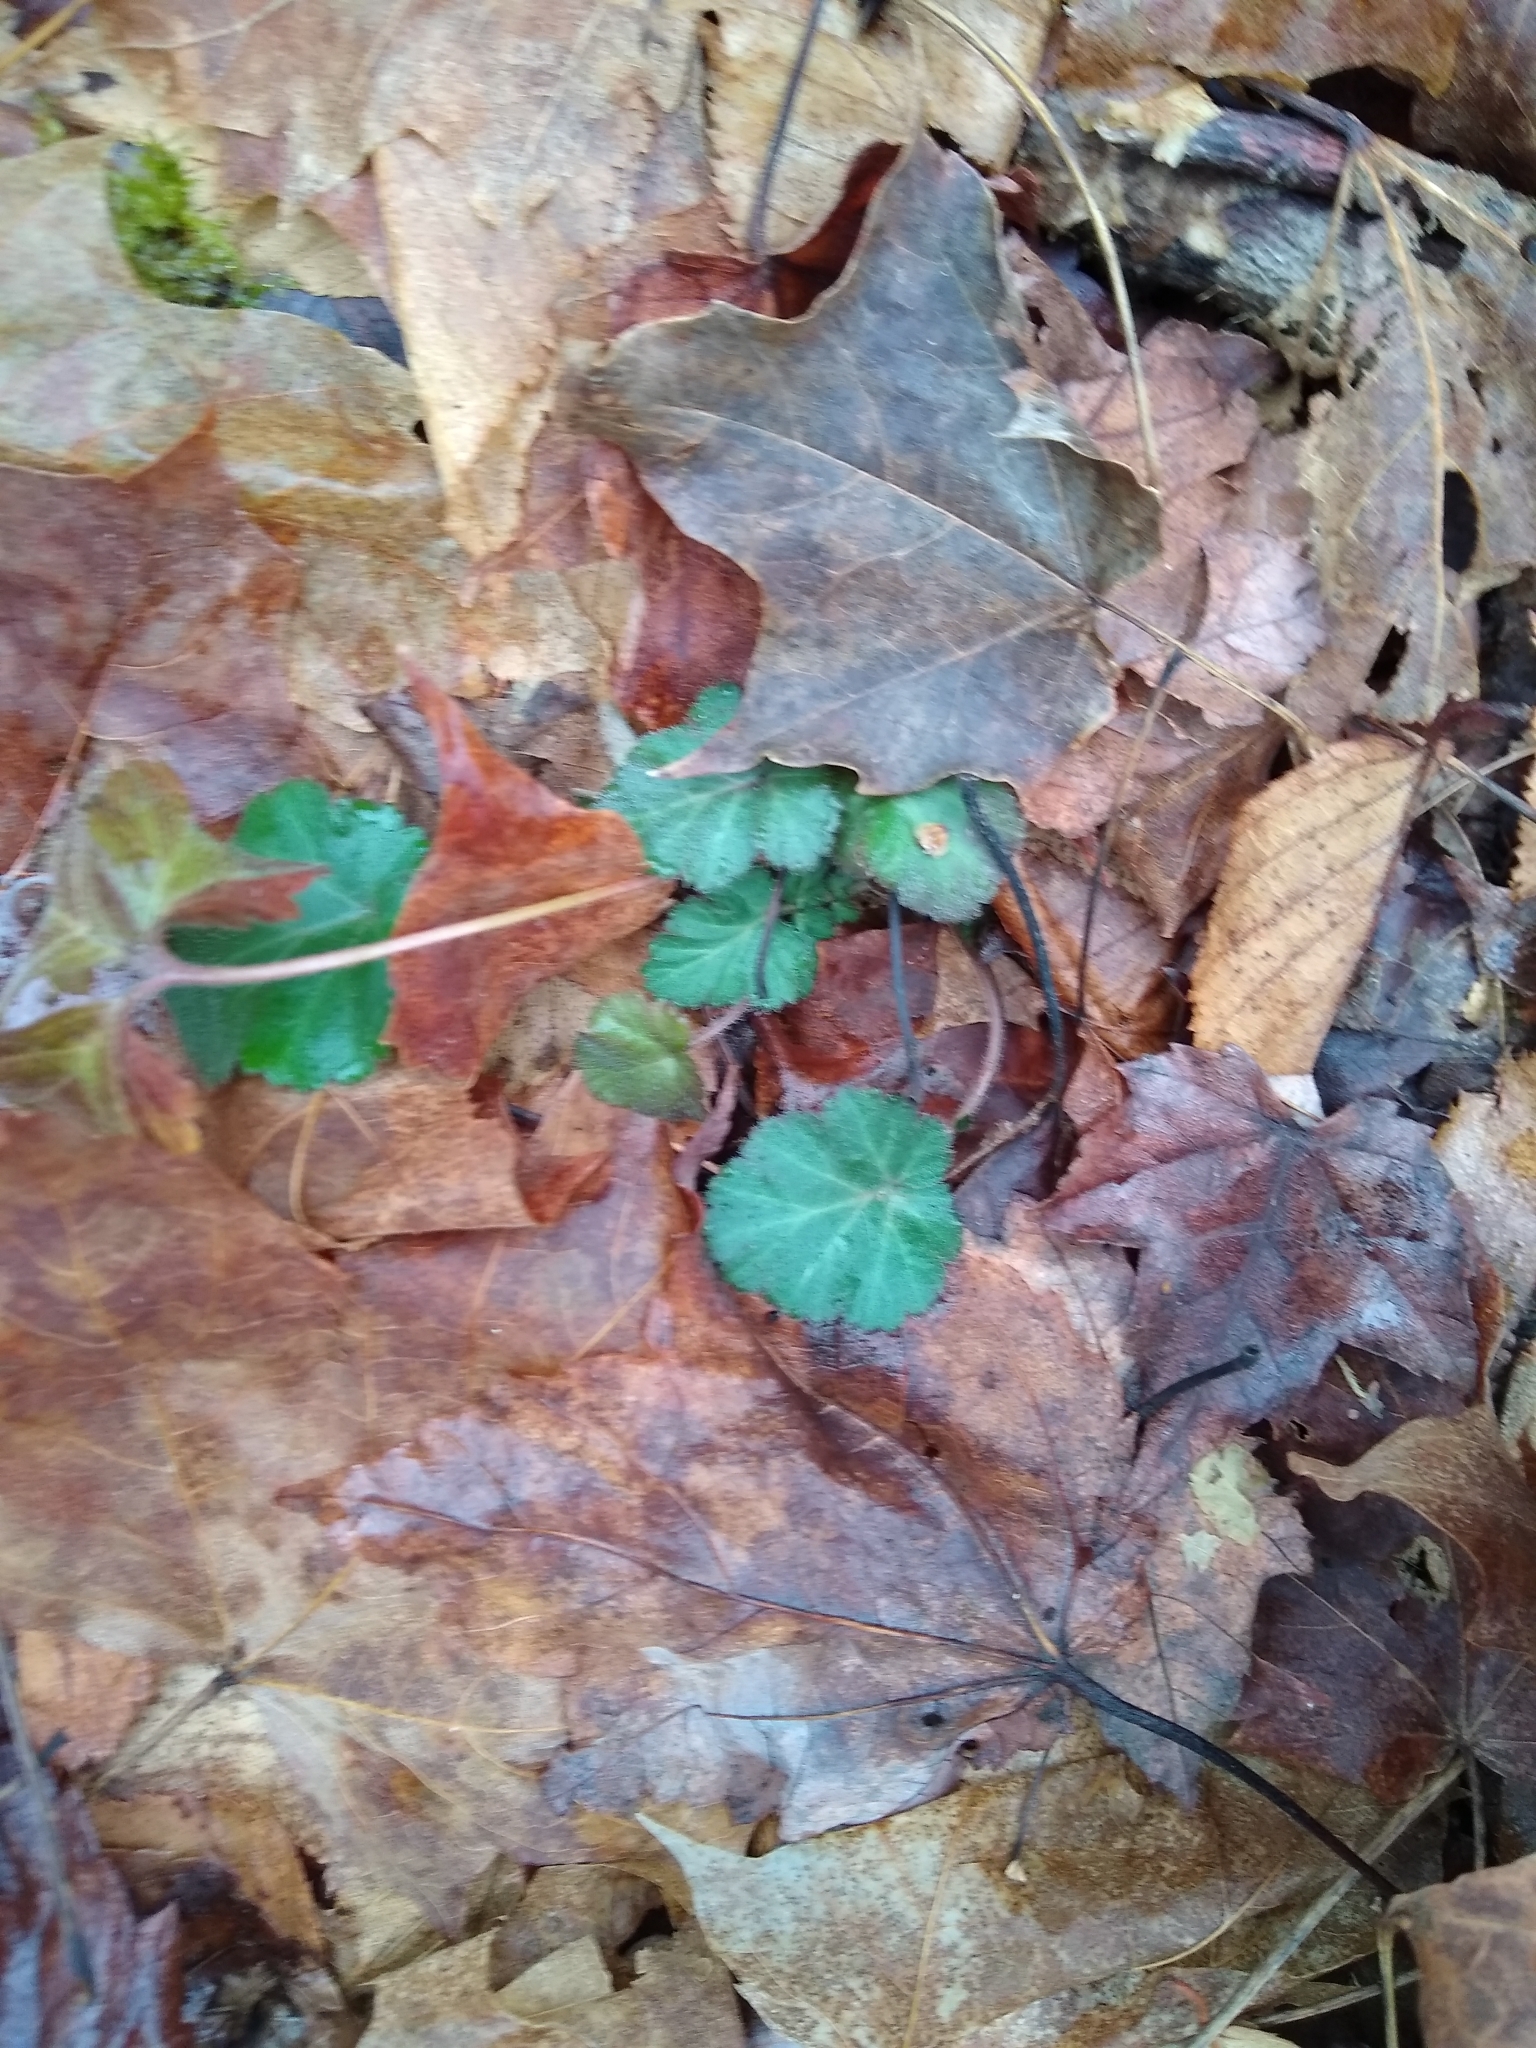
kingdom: Plantae
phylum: Tracheophyta
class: Magnoliopsida
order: Rosales
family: Rosaceae
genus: Geum
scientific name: Geum canadense
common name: White avens
